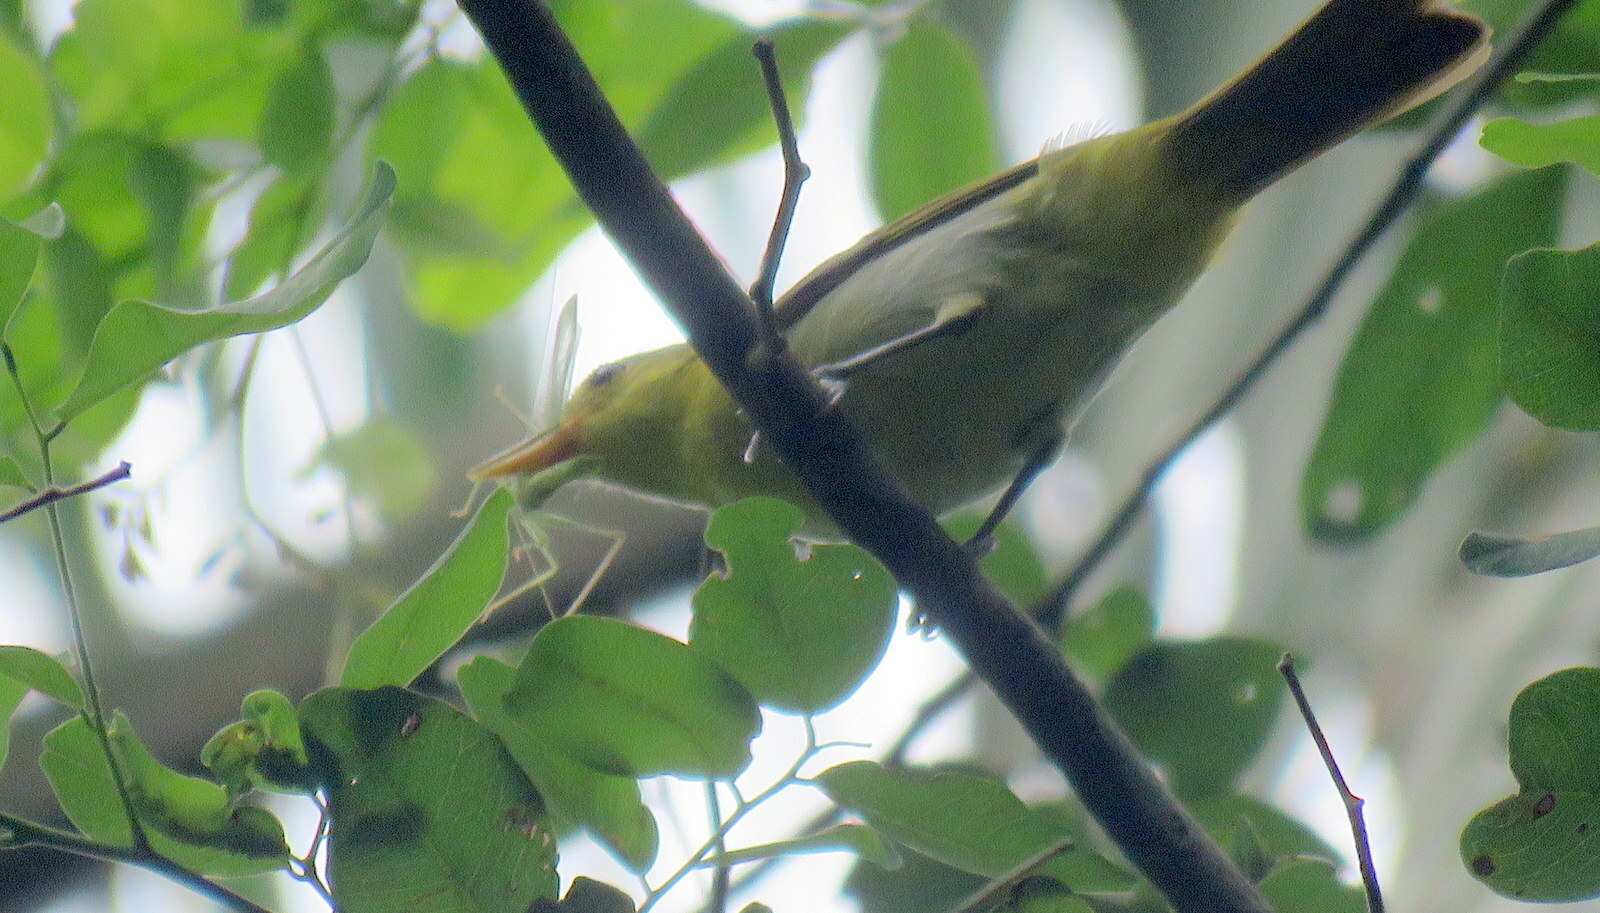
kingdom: Animalia
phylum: Chordata
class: Aves
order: Passeriformes
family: Thraupidae
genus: Hemithraupis
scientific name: Hemithraupis guira
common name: Guira tanager
